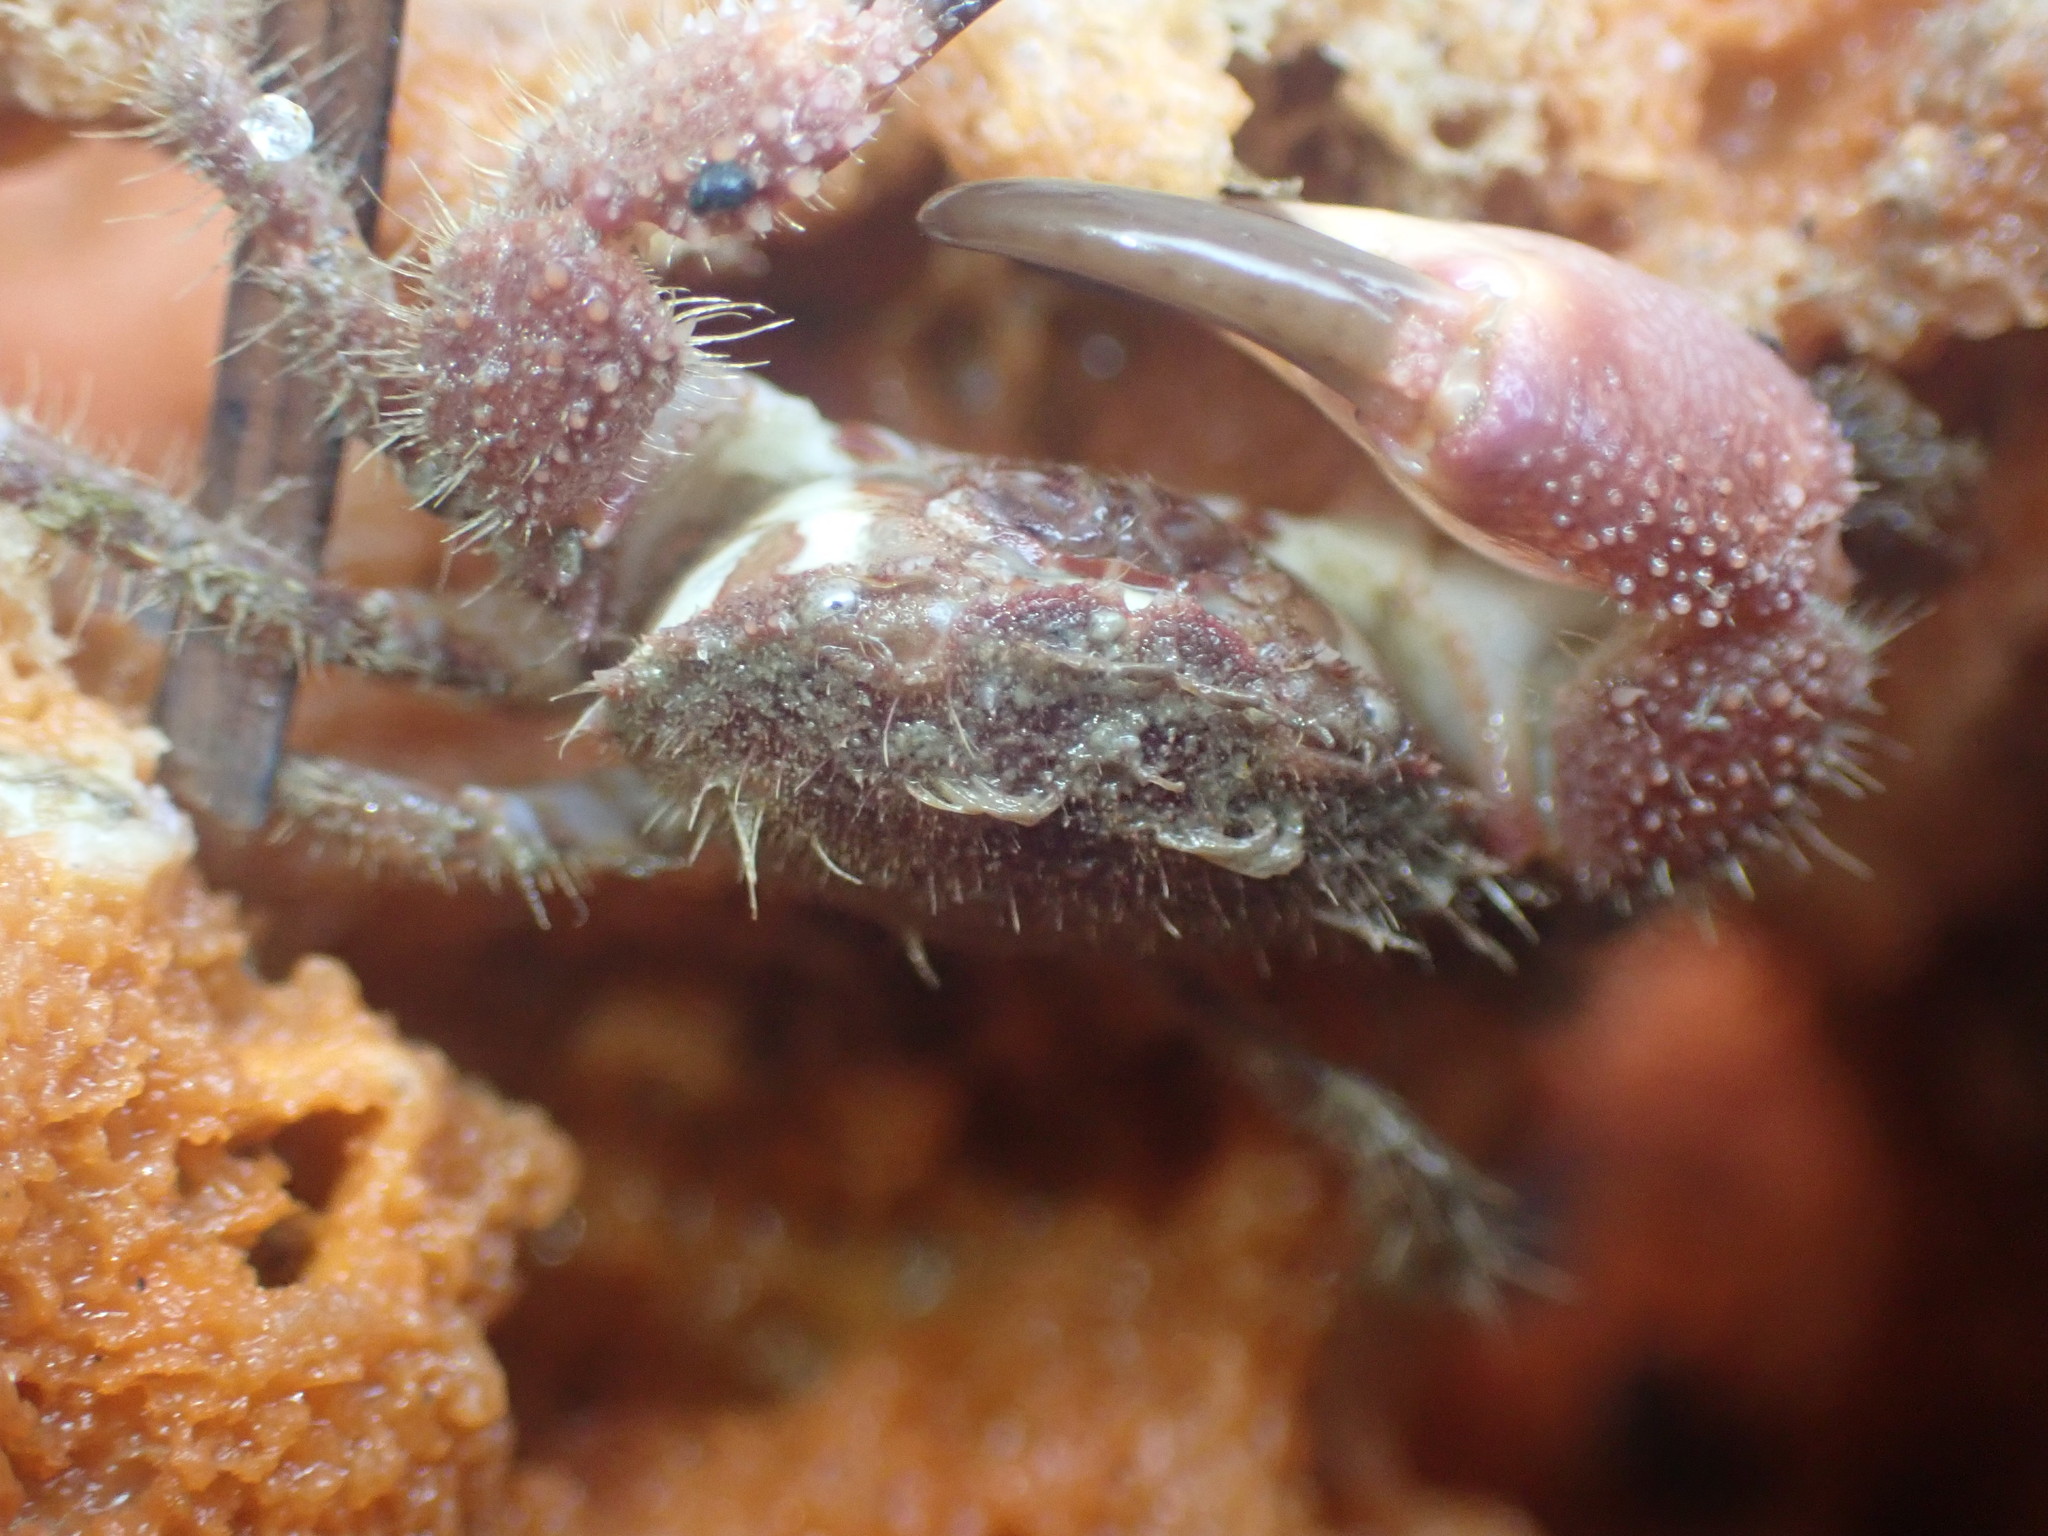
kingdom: Animalia
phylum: Arthropoda
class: Malacostraca
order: Decapoda
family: Pilumnidae
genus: Pilumnus
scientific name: Pilumnus novaezealandiae
